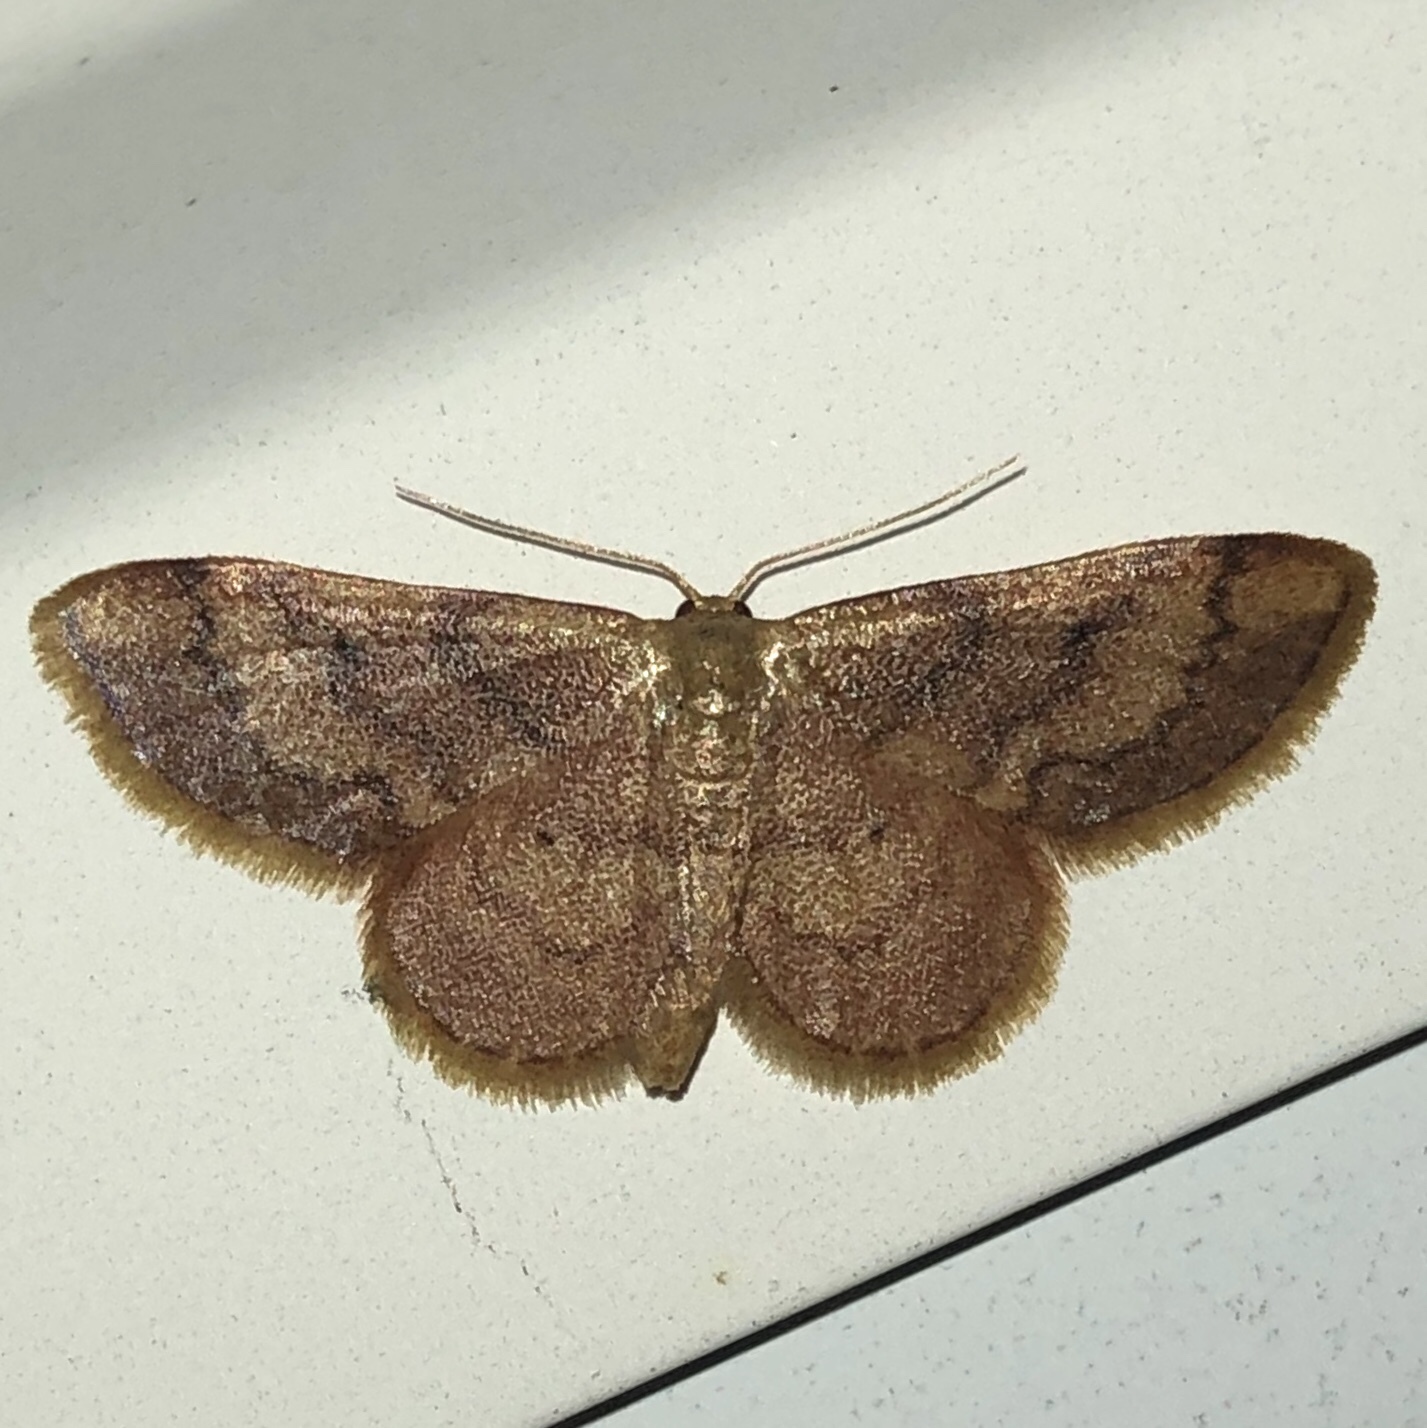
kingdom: Animalia
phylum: Arthropoda
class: Insecta
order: Lepidoptera
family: Geometridae
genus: Idaea
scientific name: Idaea demissaria
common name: Red-bordered wave
